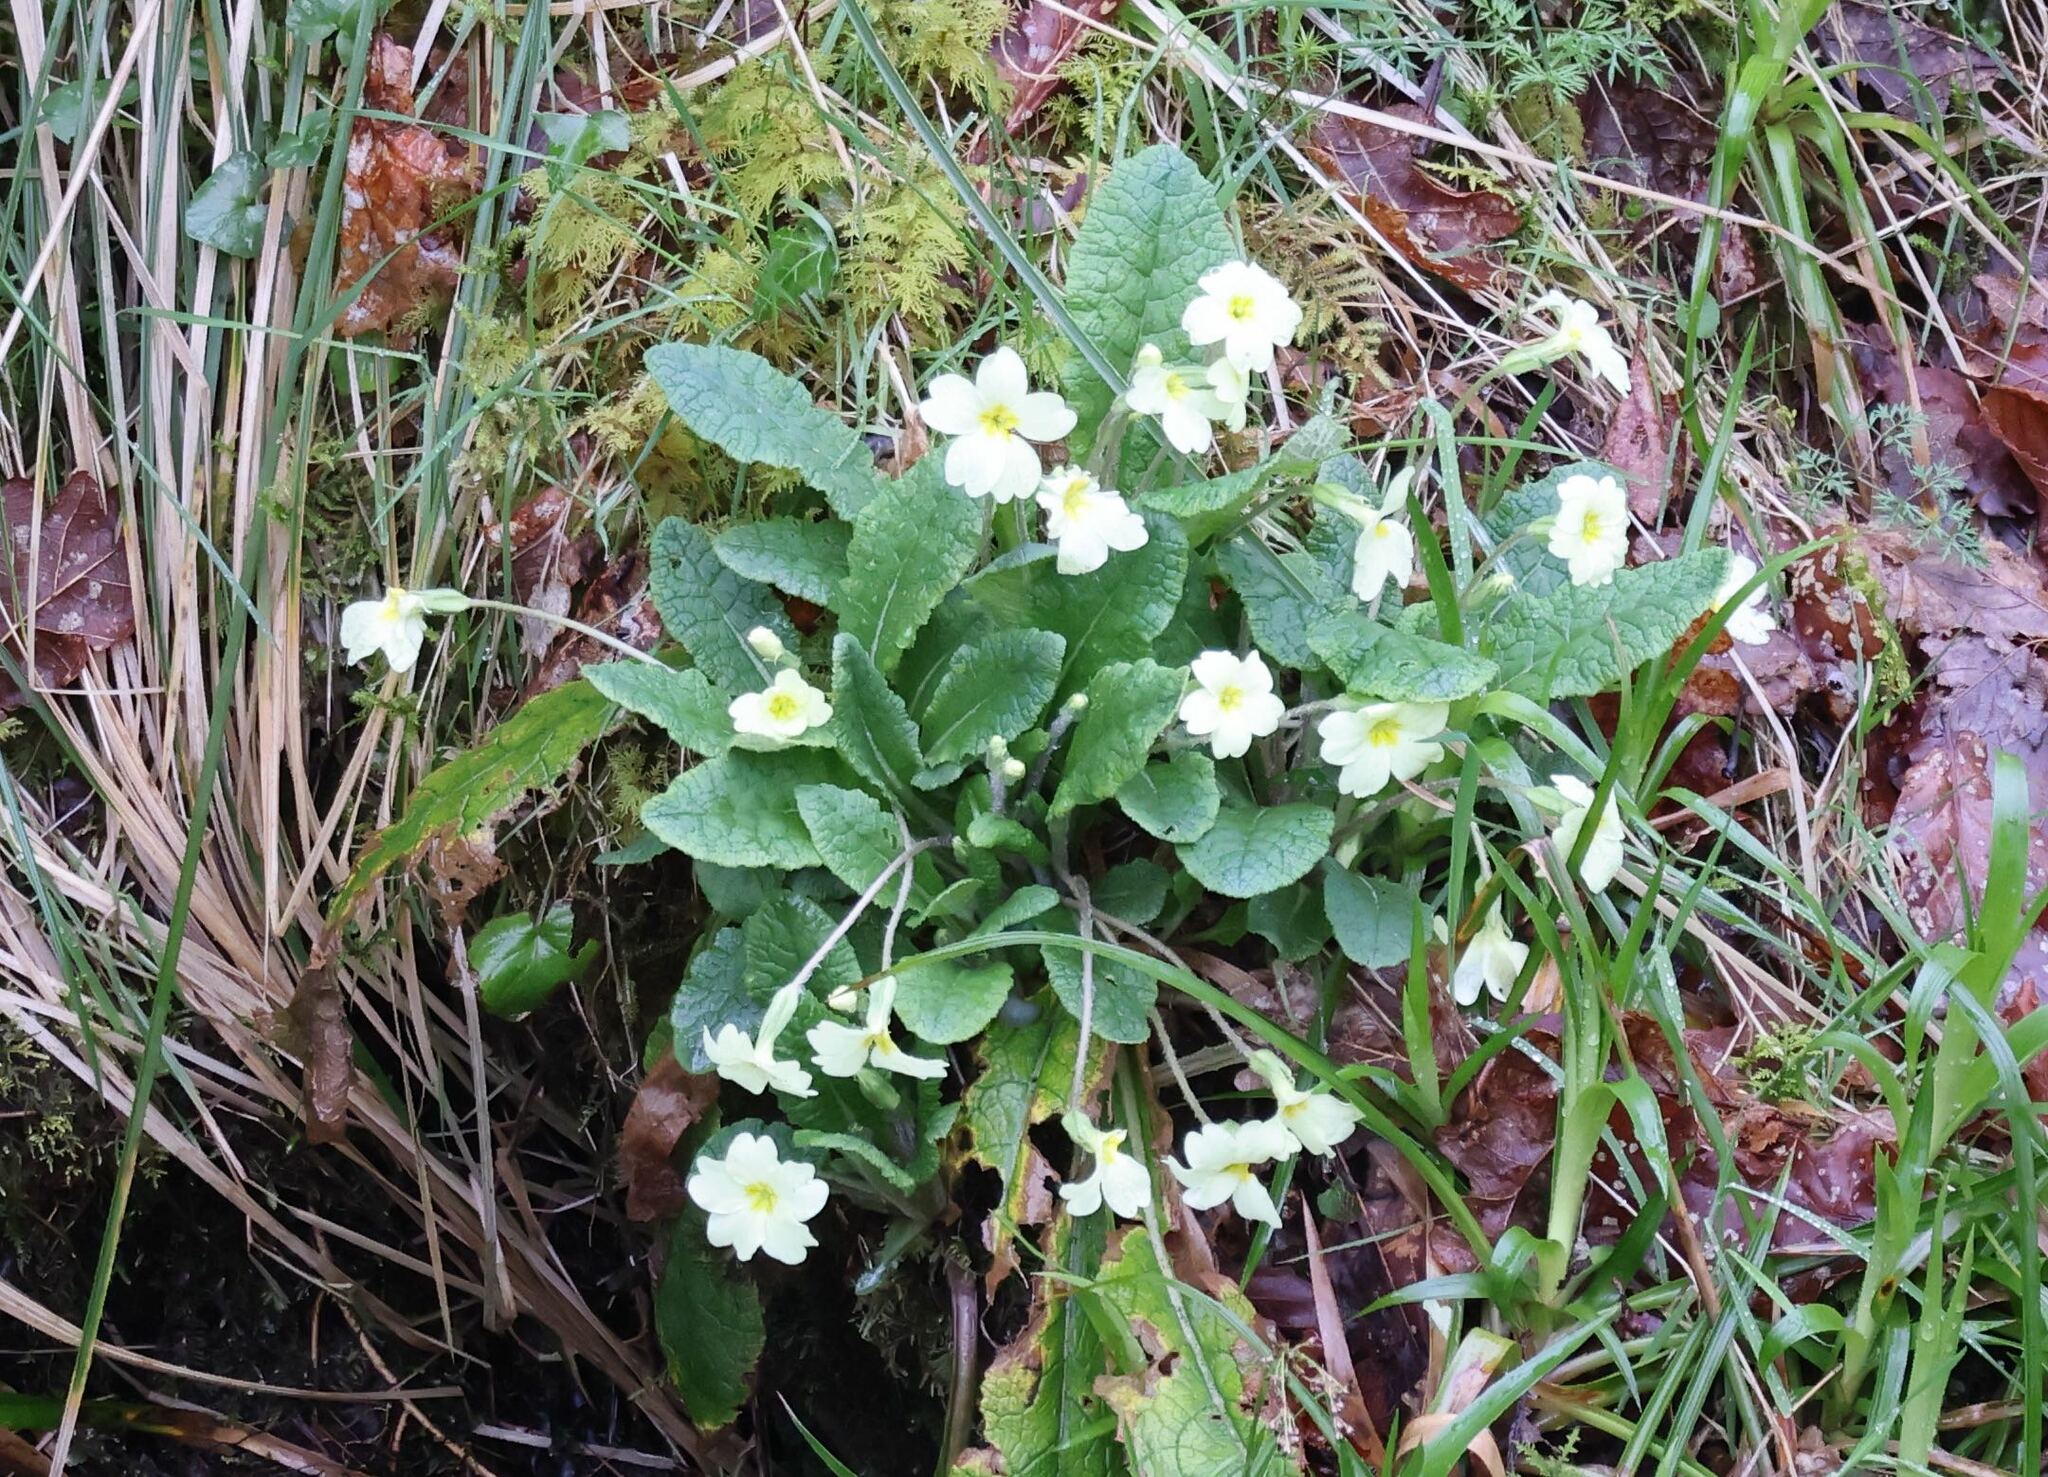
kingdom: Plantae
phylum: Tracheophyta
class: Magnoliopsida
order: Ericales
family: Primulaceae
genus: Primula
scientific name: Primula vulgaris
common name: Primrose
